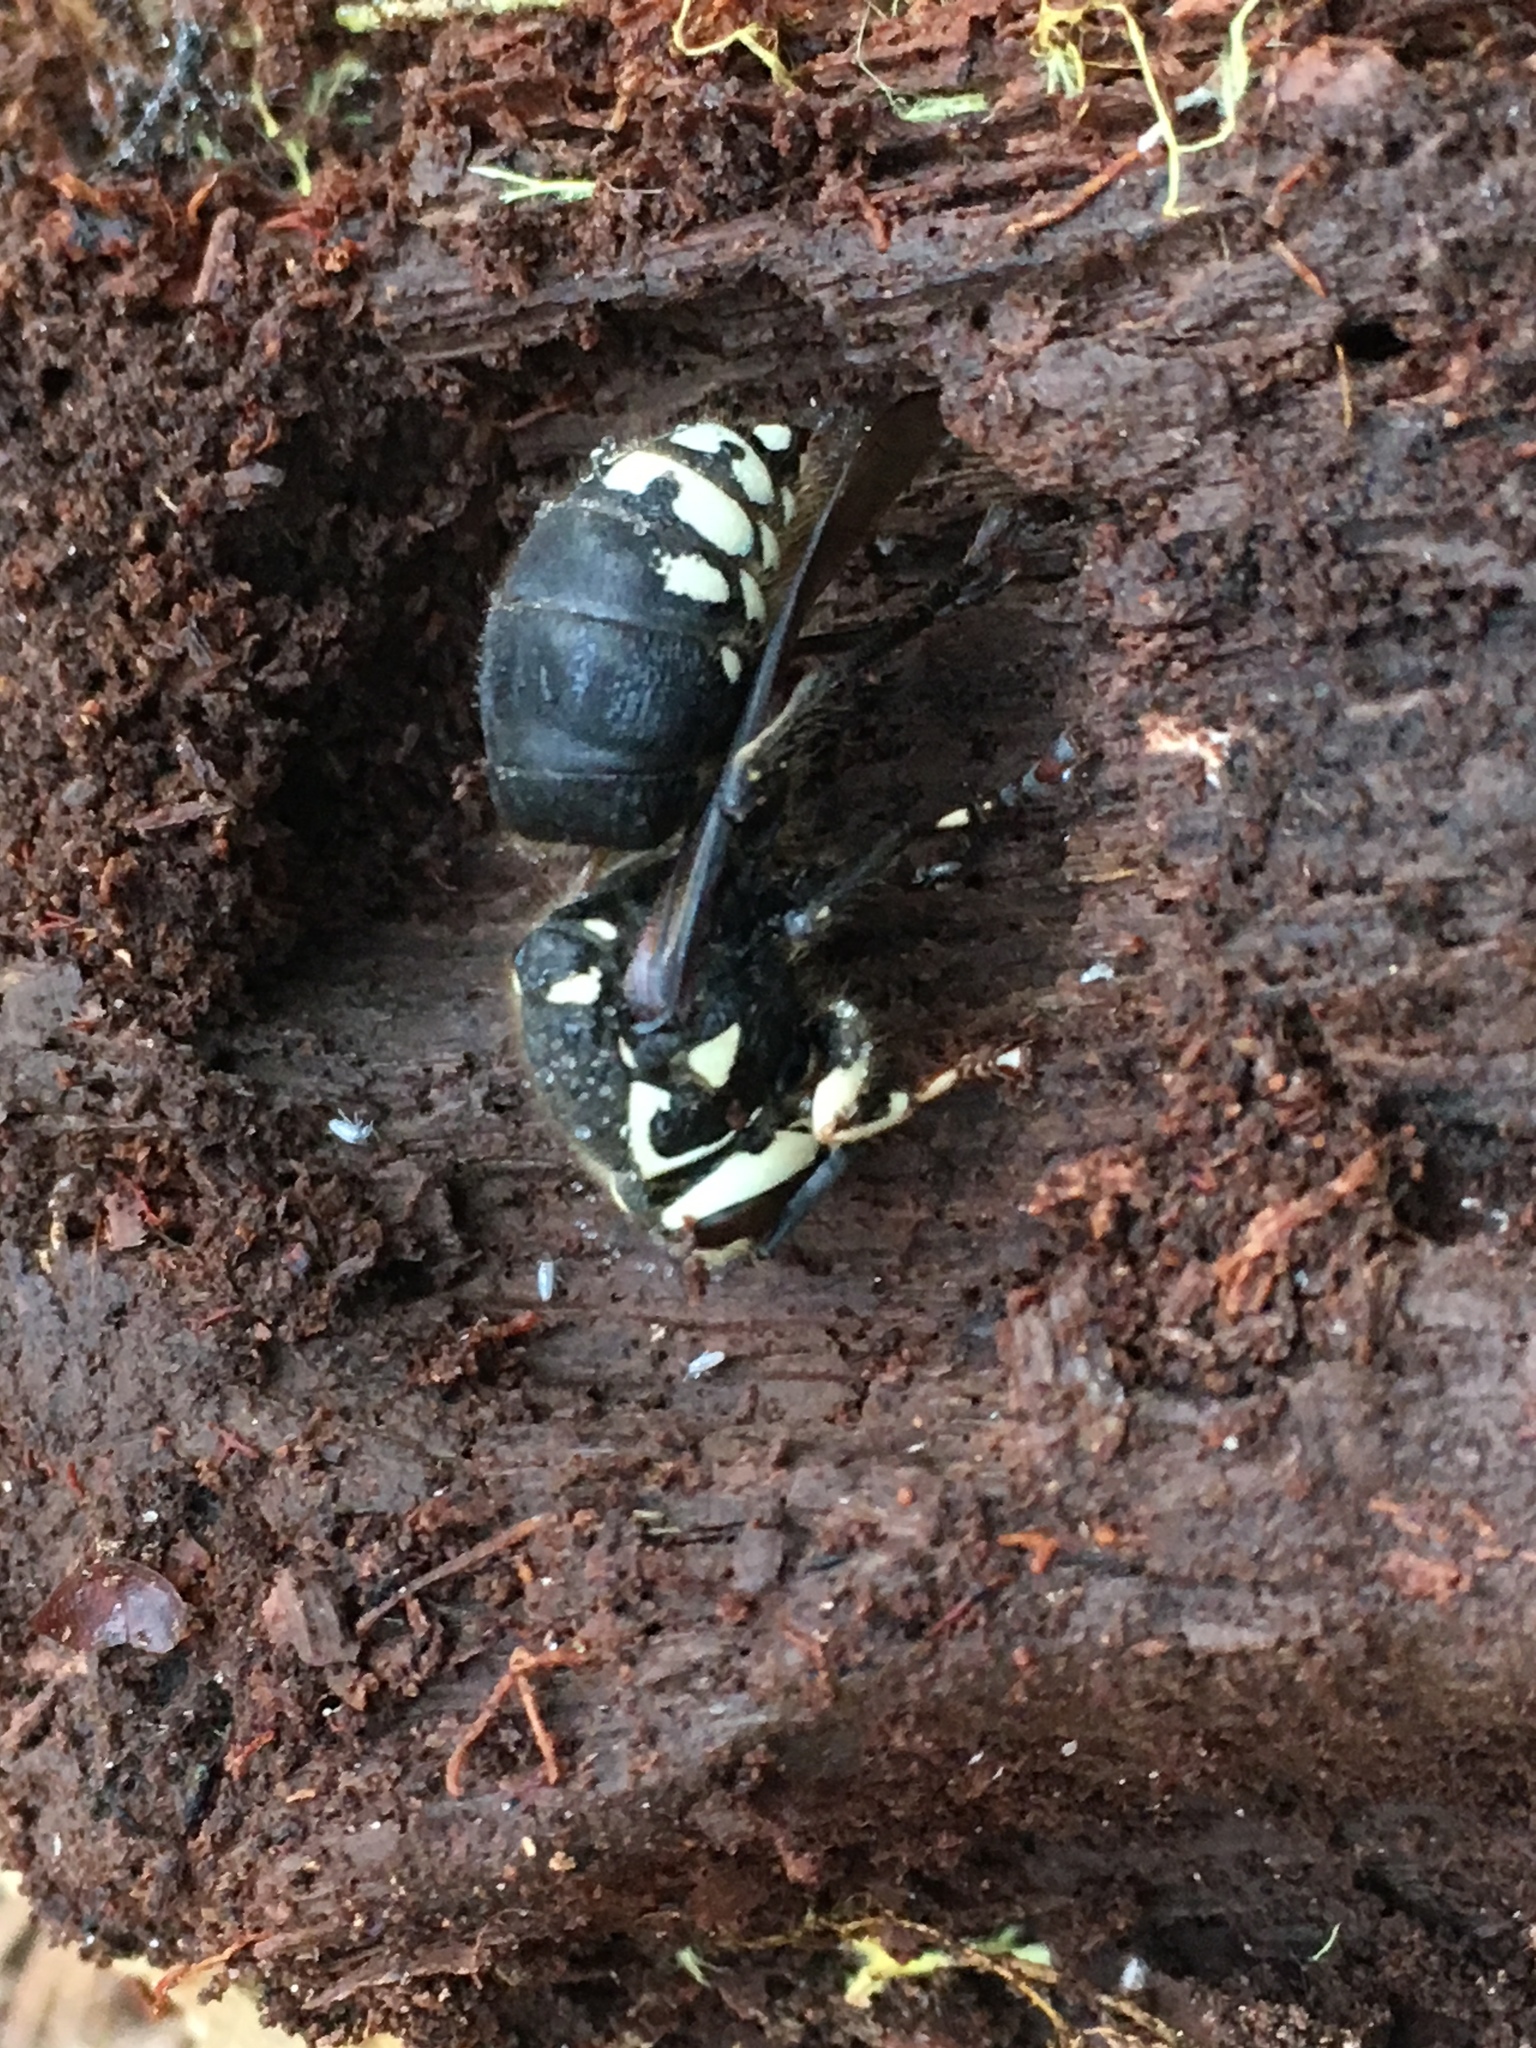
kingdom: Animalia
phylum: Arthropoda
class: Insecta
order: Hymenoptera
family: Vespidae
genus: Dolichovespula
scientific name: Dolichovespula maculata
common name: Bald-faced hornet
